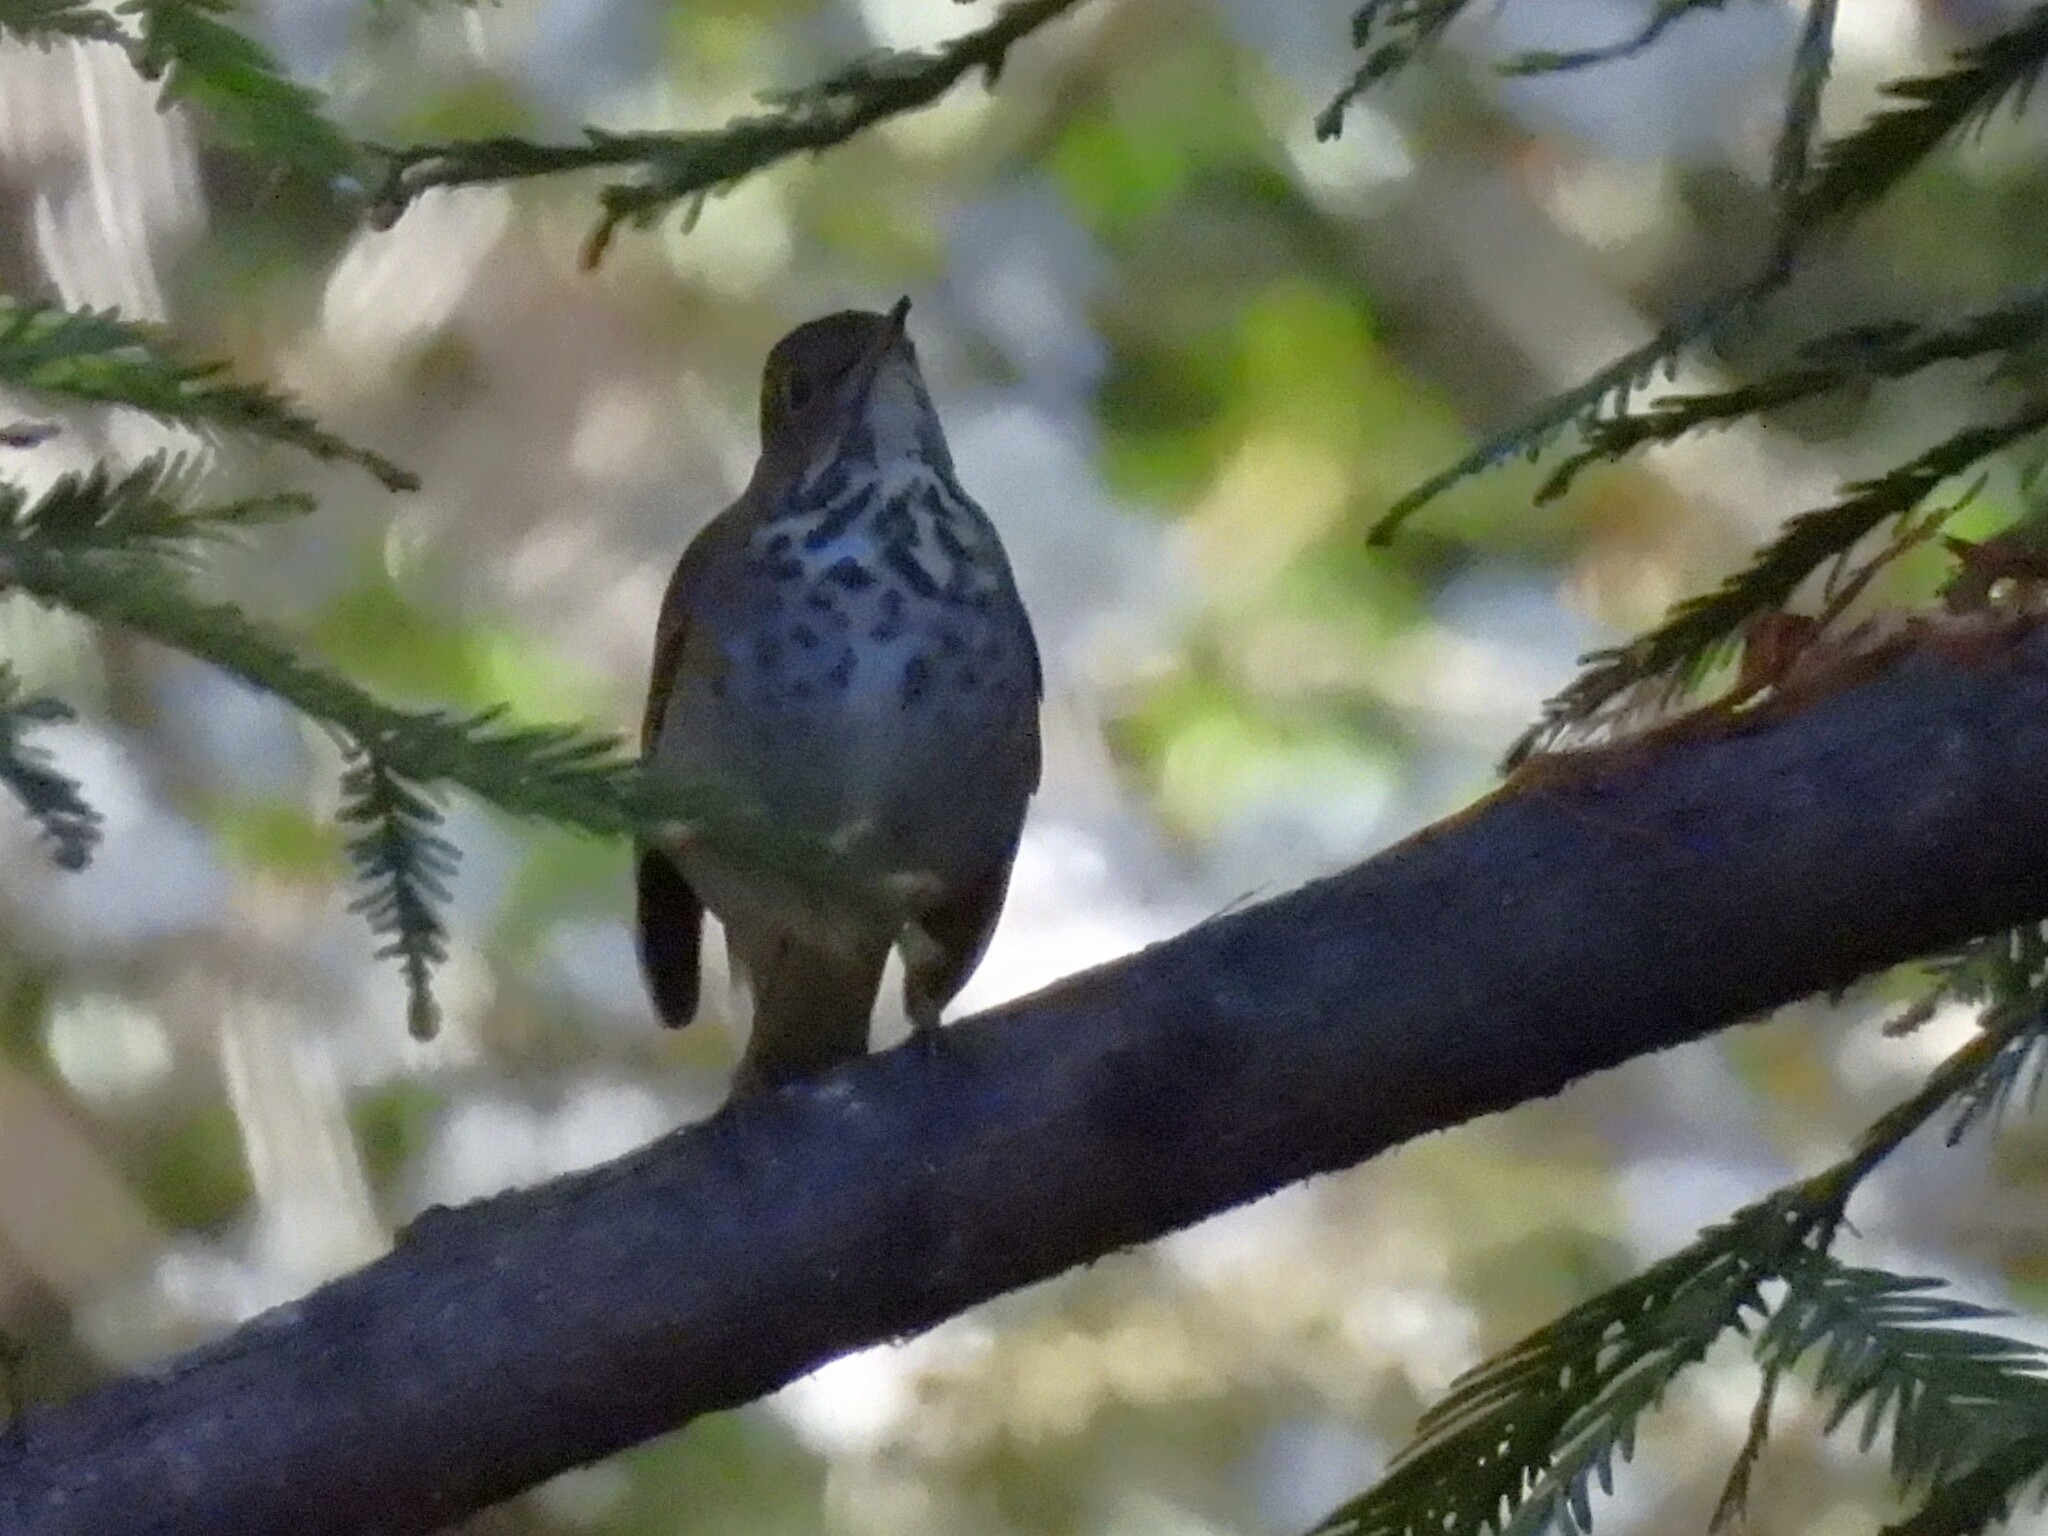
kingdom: Animalia
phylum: Chordata
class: Aves
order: Passeriformes
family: Turdidae
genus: Catharus
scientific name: Catharus guttatus
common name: Hermit thrush
